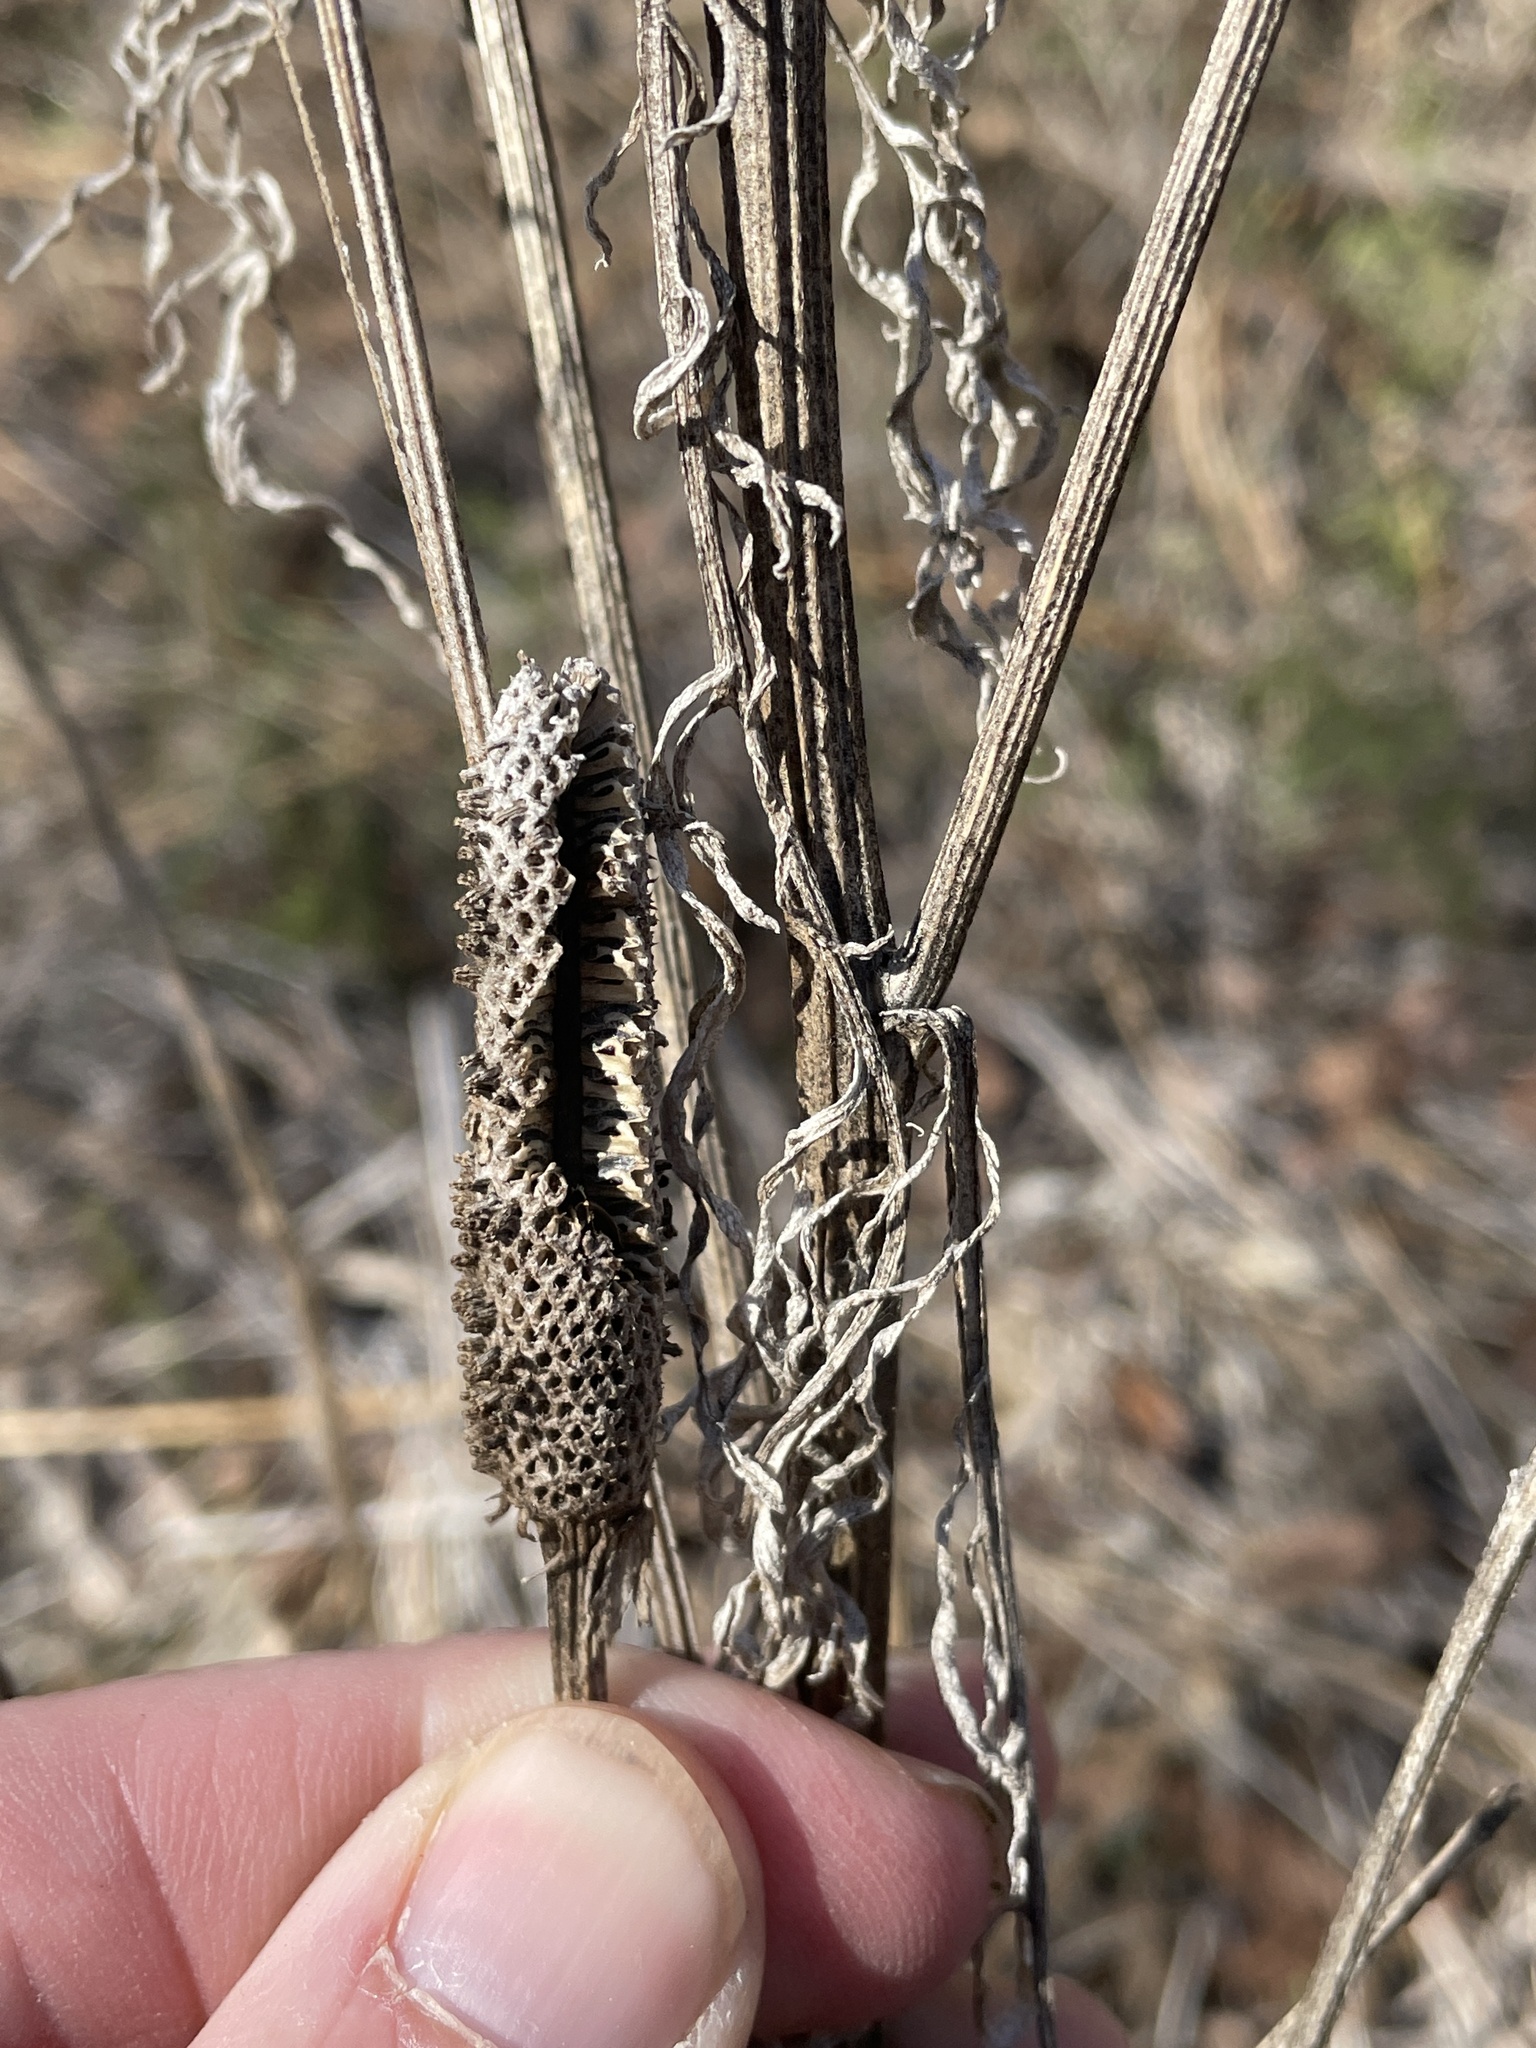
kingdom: Plantae
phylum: Tracheophyta
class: Magnoliopsida
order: Asterales
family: Asteraceae
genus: Ratibida
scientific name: Ratibida columnifera
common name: Prairie coneflower
